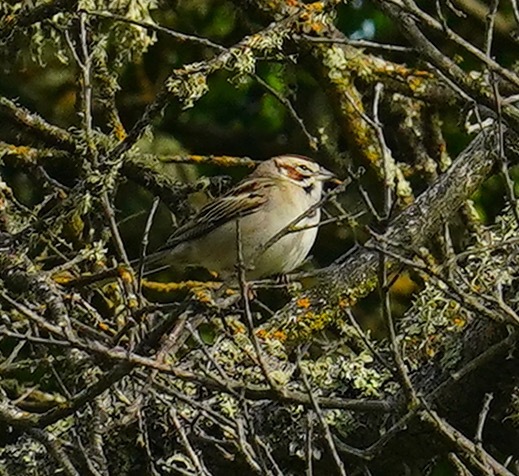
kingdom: Animalia
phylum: Chordata
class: Aves
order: Passeriformes
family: Passerellidae
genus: Chondestes
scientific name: Chondestes grammacus
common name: Lark sparrow
